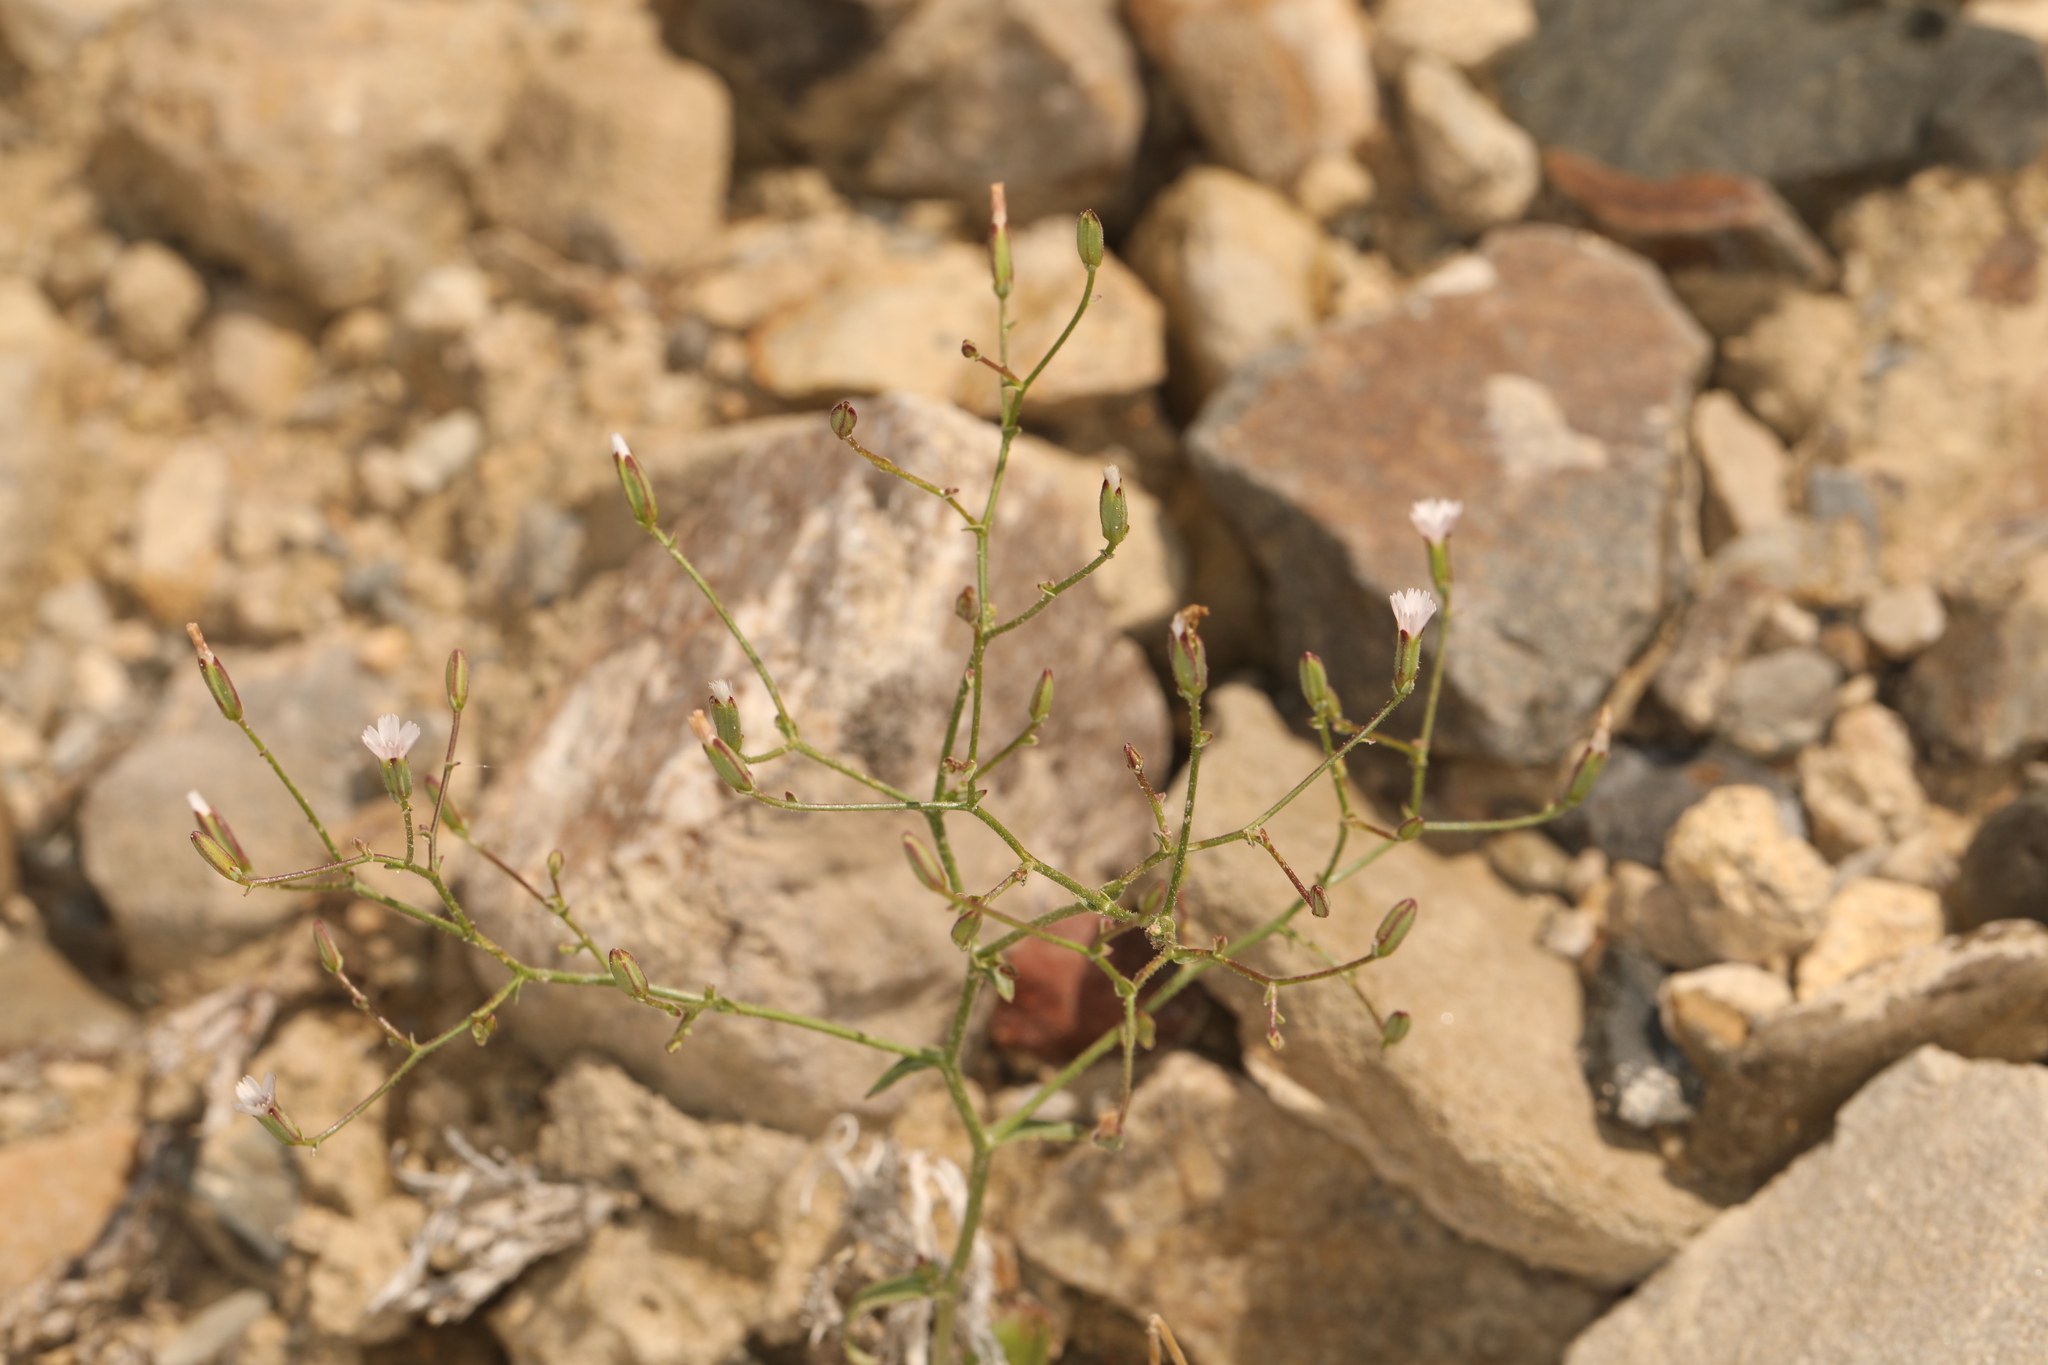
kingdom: Plantae
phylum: Tracheophyta
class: Magnoliopsida
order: Asterales
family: Asteraceae
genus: Lygodesmia
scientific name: Lygodesmia exigua
